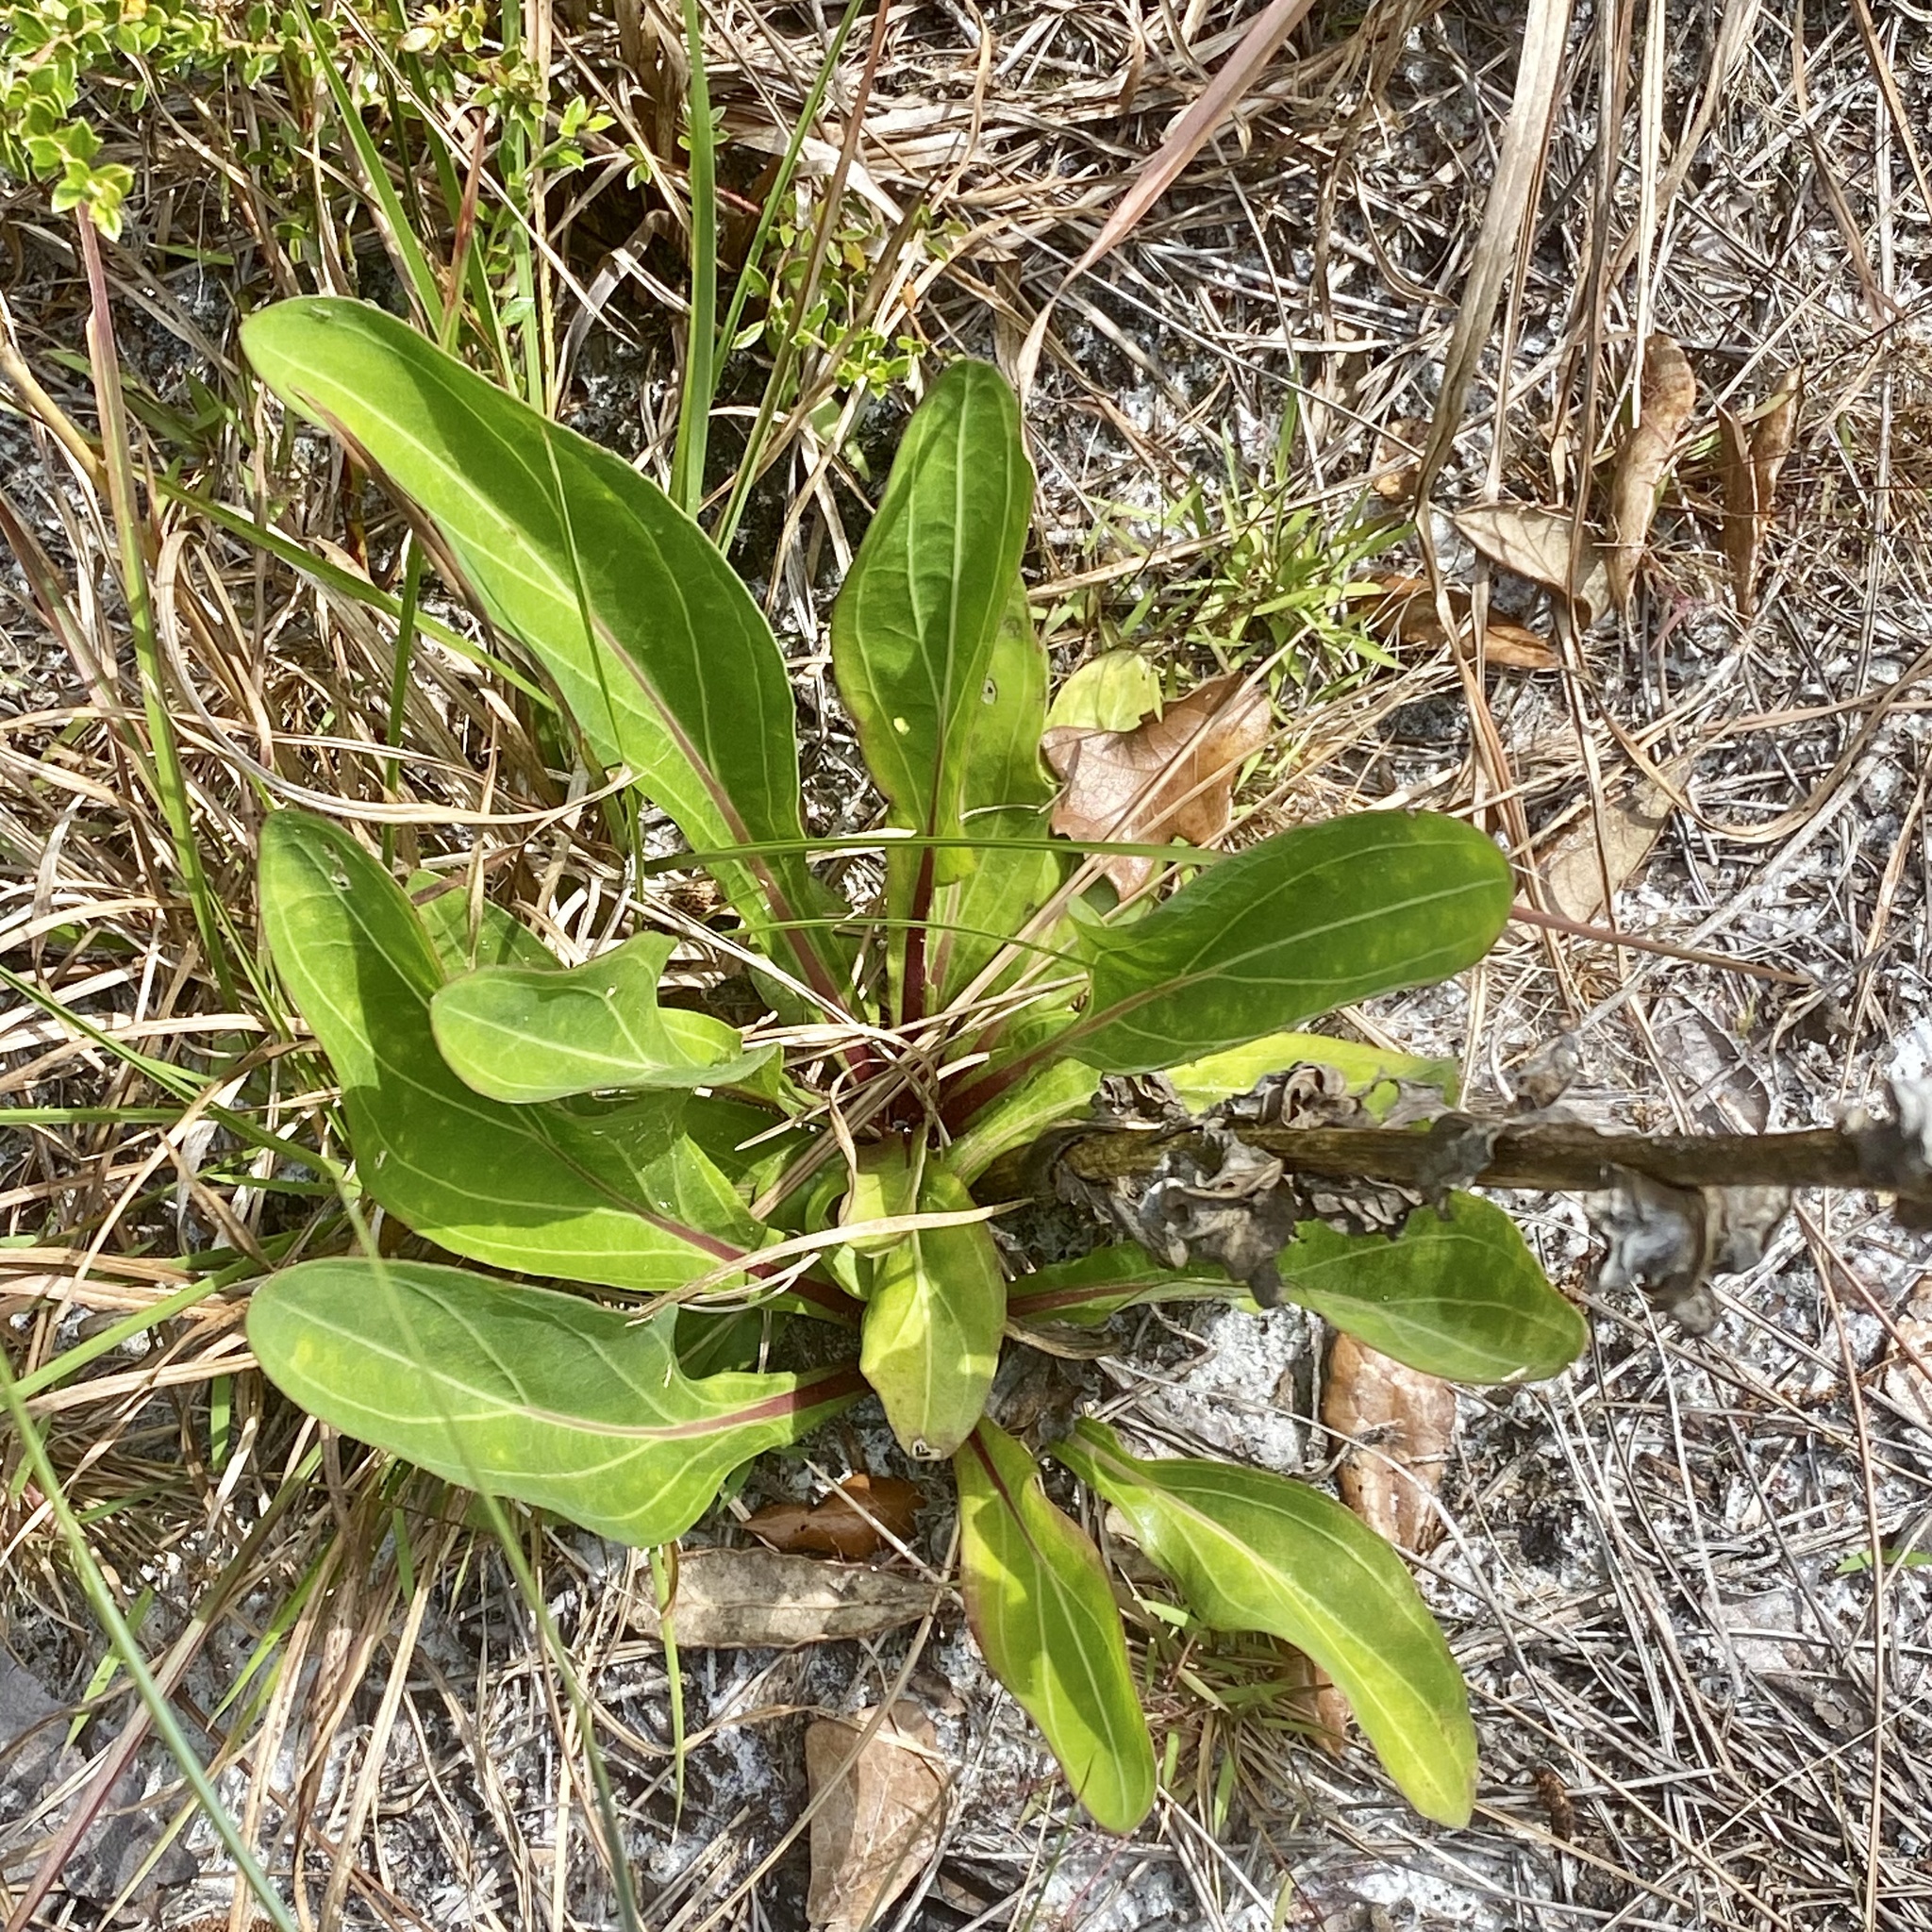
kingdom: Plantae
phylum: Tracheophyta
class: Magnoliopsida
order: Asterales
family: Asteraceae
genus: Carphephorus
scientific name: Carphephorus odoratissimus
